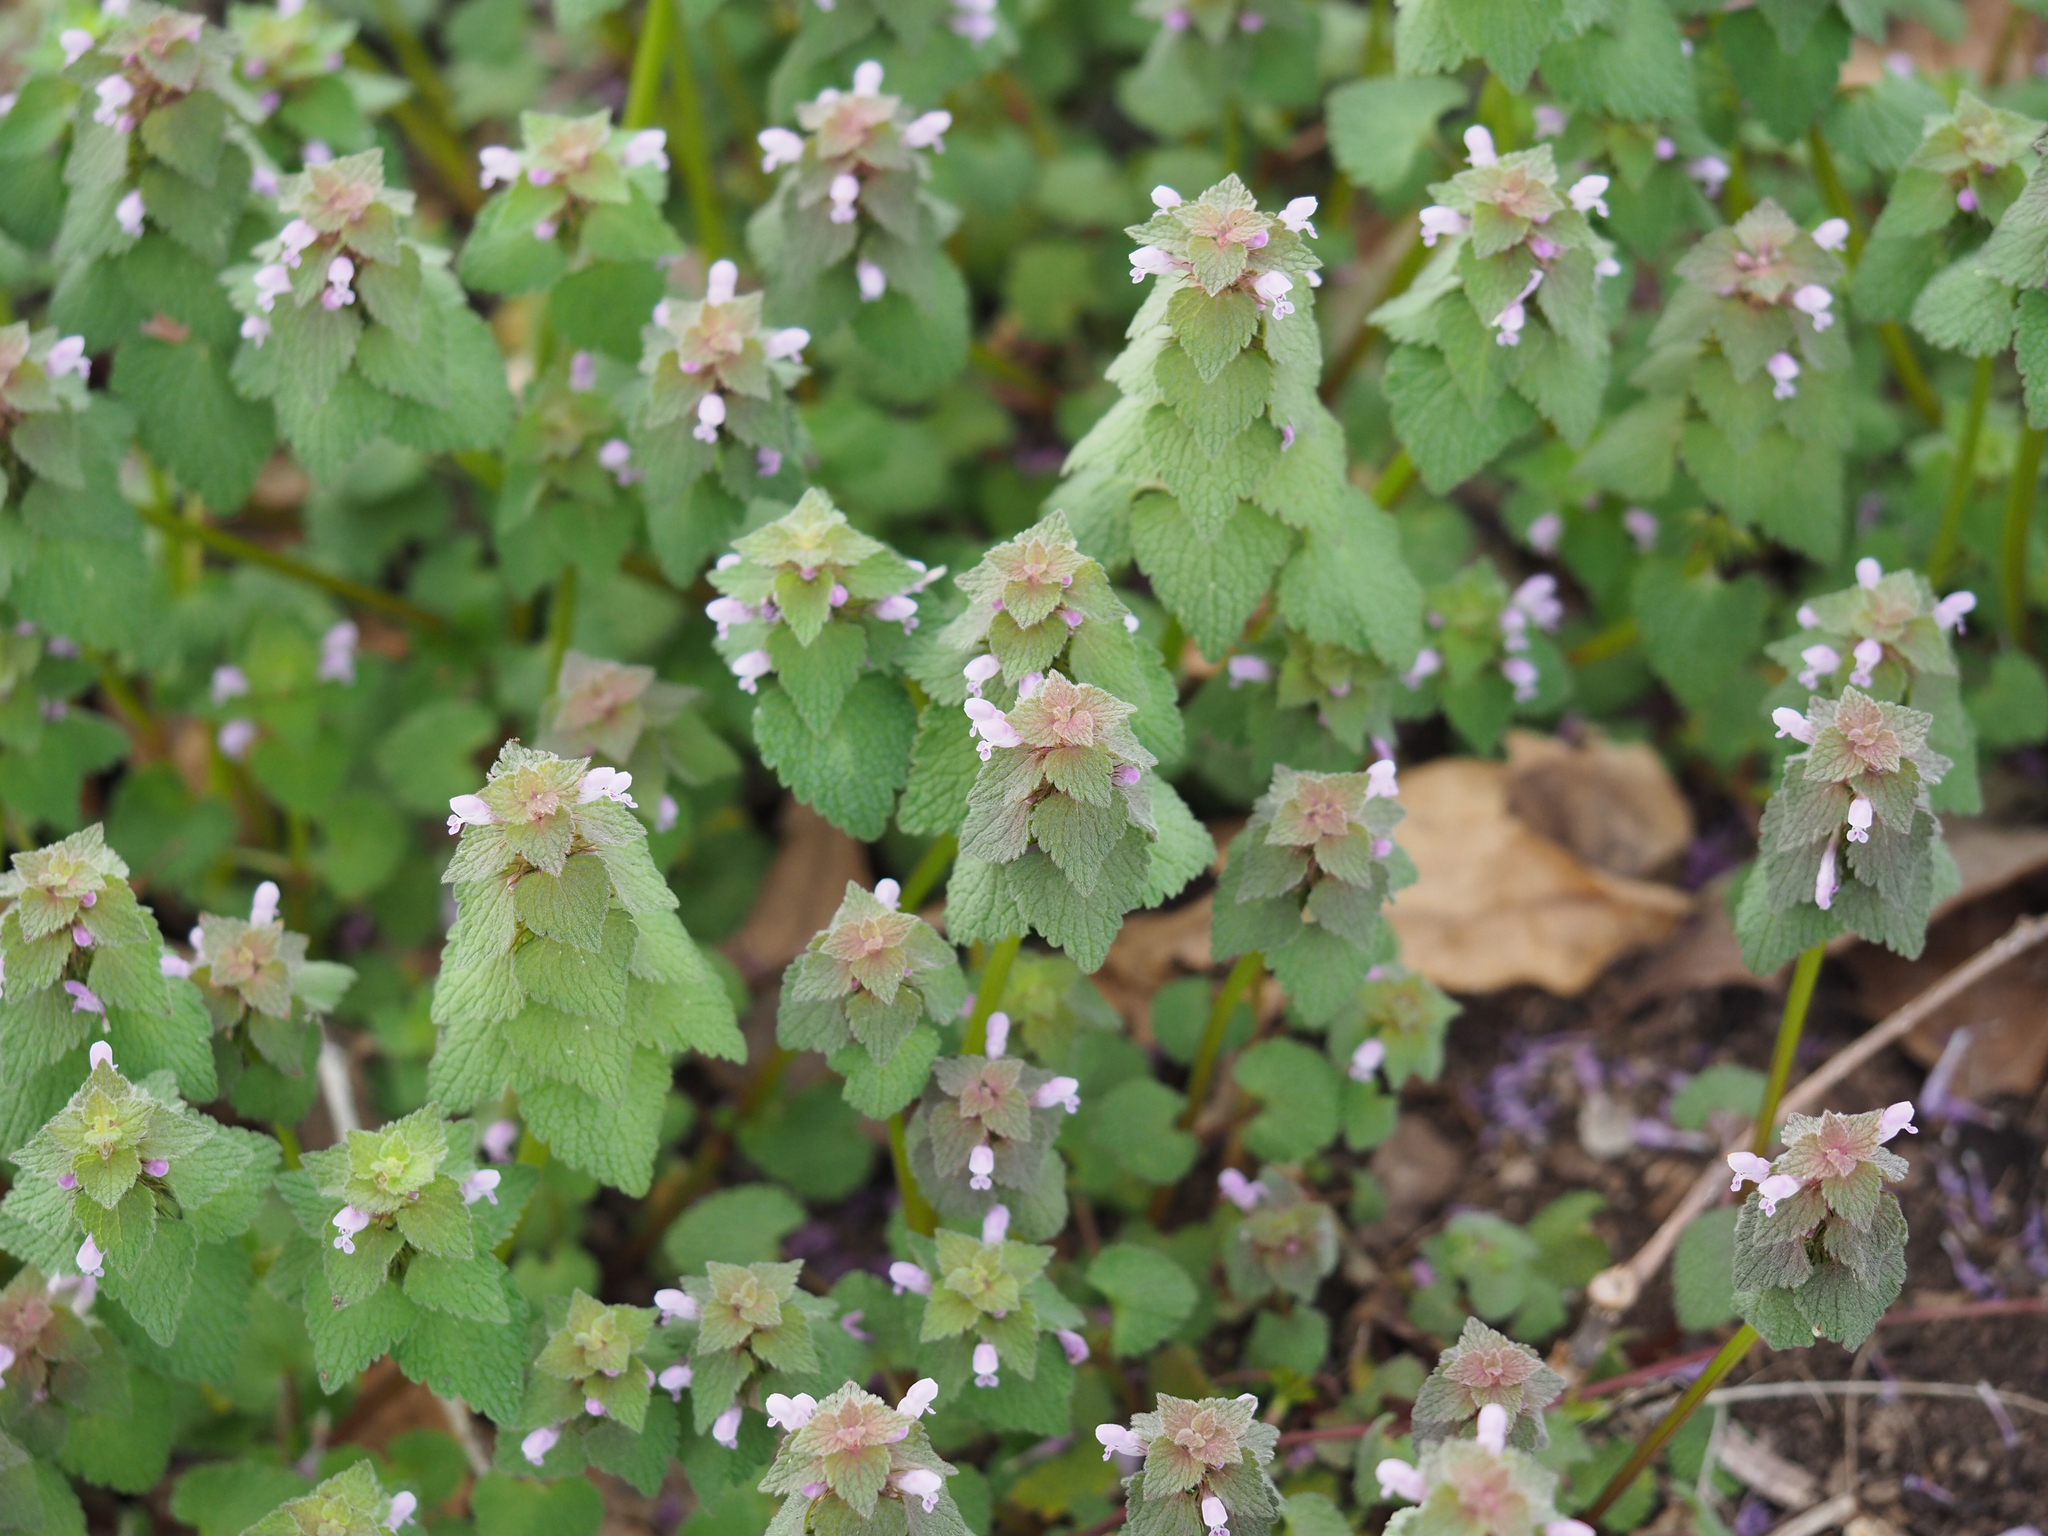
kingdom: Plantae
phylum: Tracheophyta
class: Magnoliopsida
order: Lamiales
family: Lamiaceae
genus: Lamium
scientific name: Lamium purpureum
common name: Red dead-nettle
